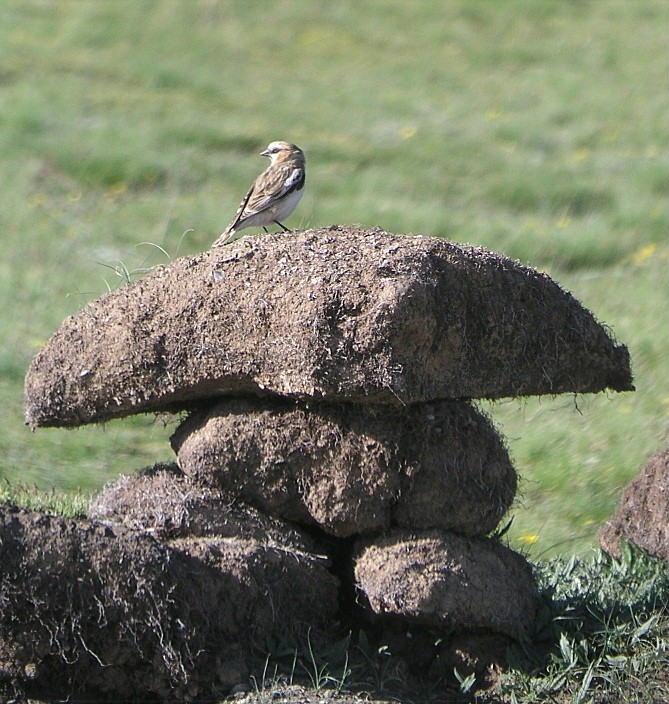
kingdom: Animalia
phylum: Chordata
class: Aves
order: Passeriformes
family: Passeridae
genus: Pyrgilauda
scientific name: Pyrgilauda ruficollis
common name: Rufous-necked snowfinch
